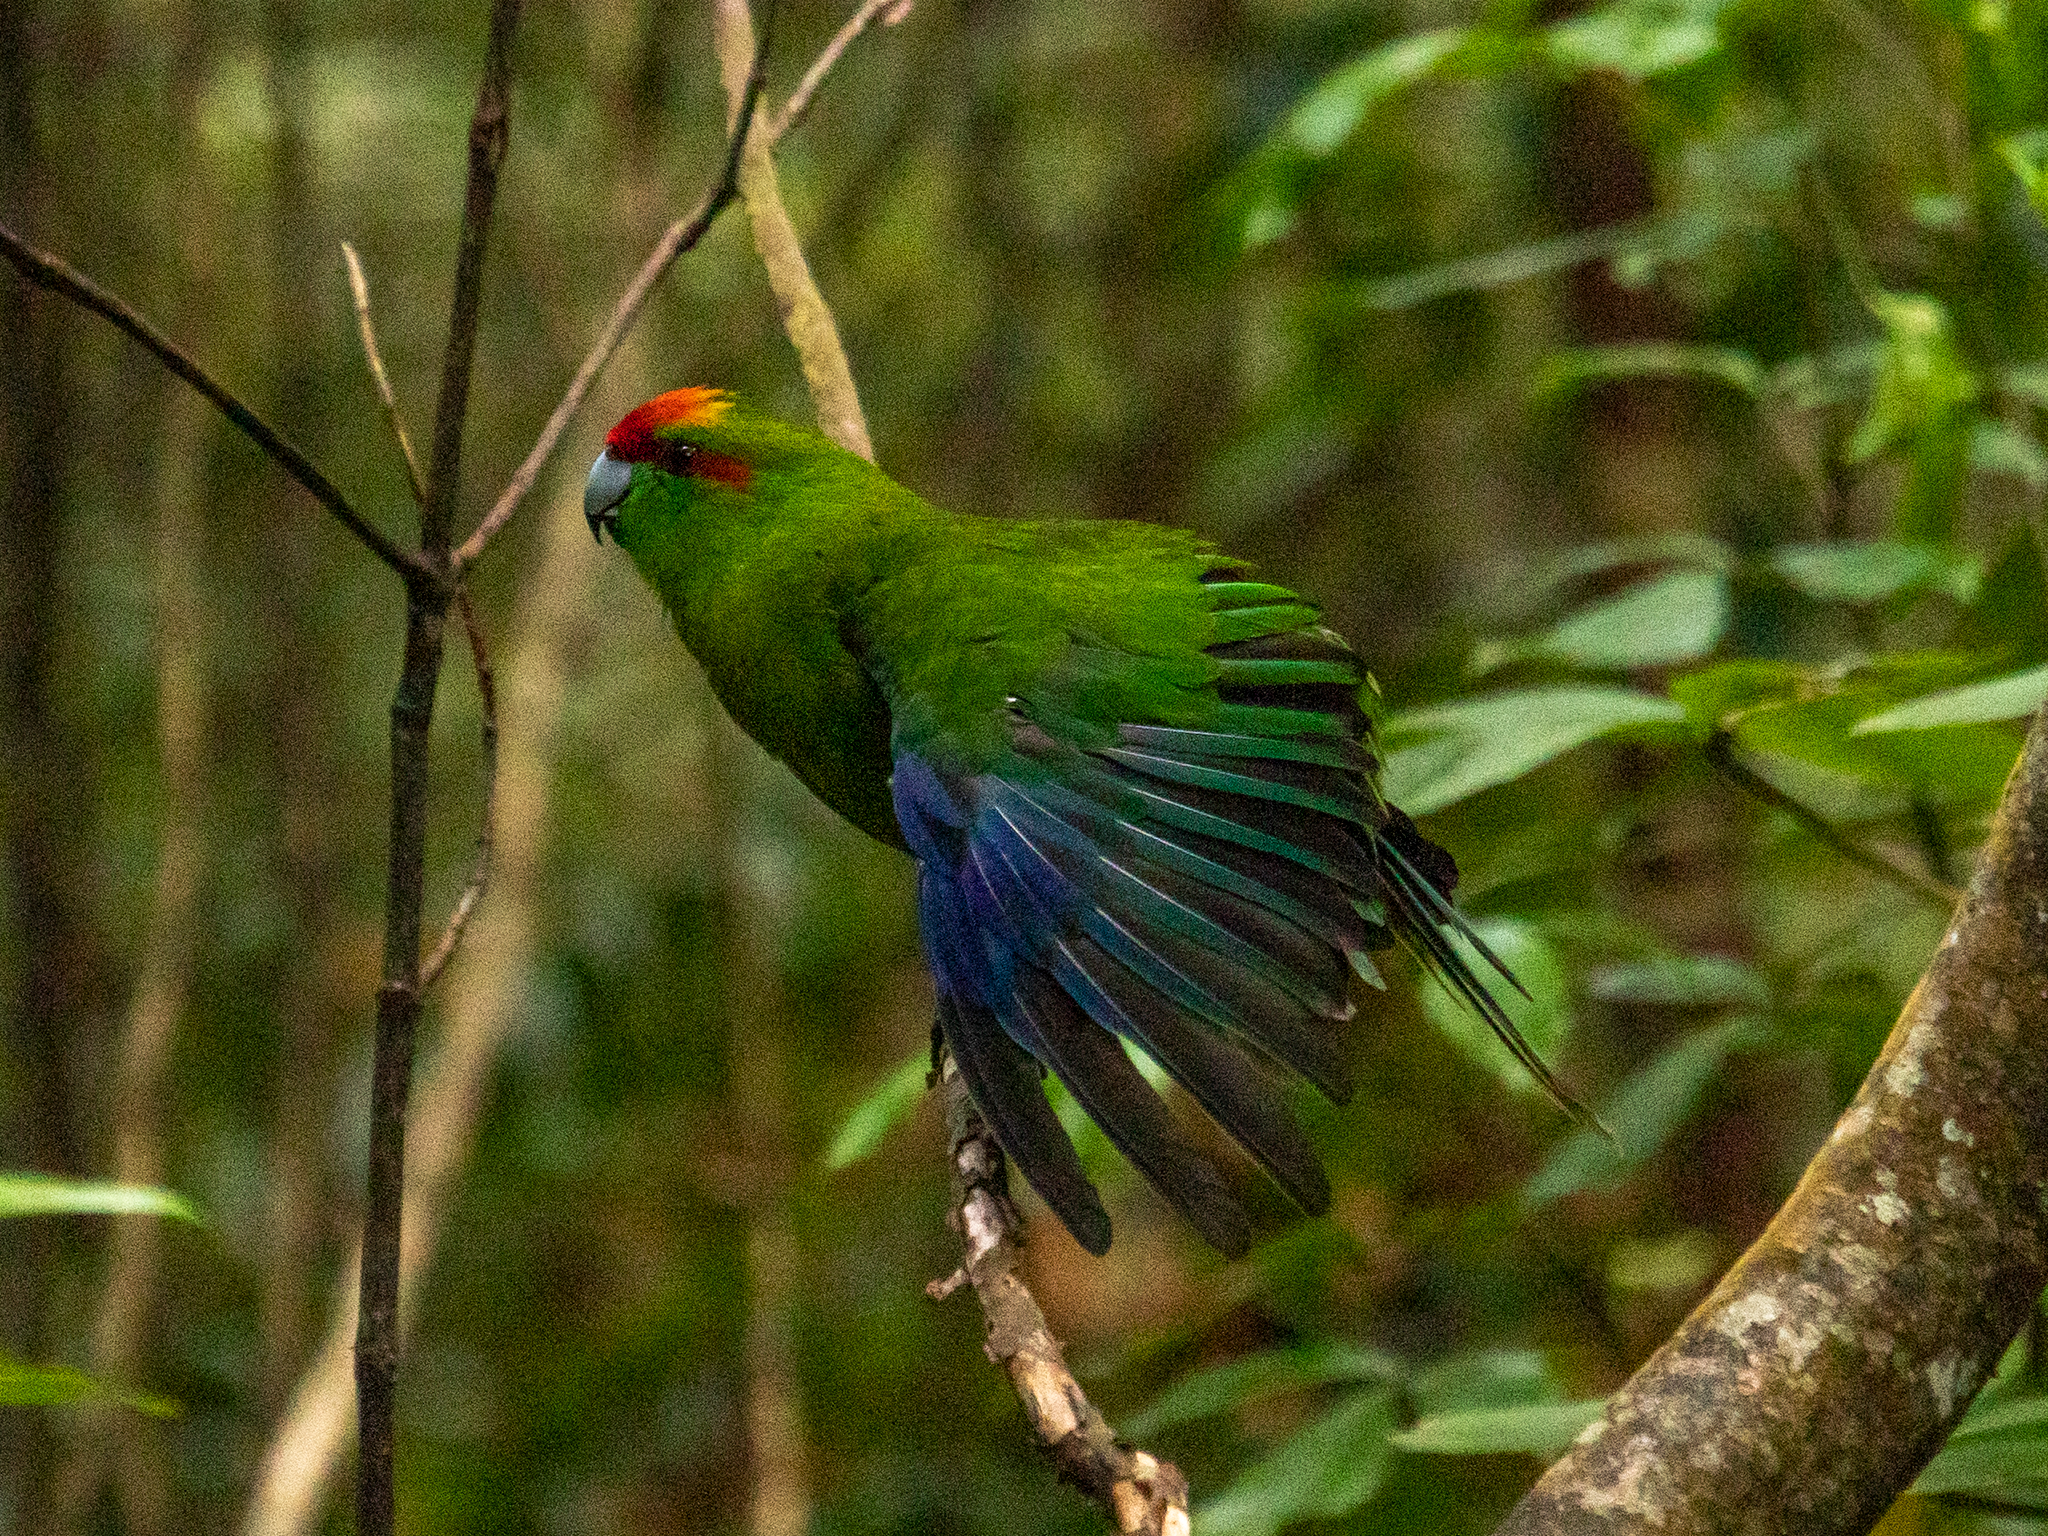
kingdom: Animalia
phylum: Chordata
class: Aves
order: Psittaciformes
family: Psittacidae
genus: Cyanoramphus
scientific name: Cyanoramphus
